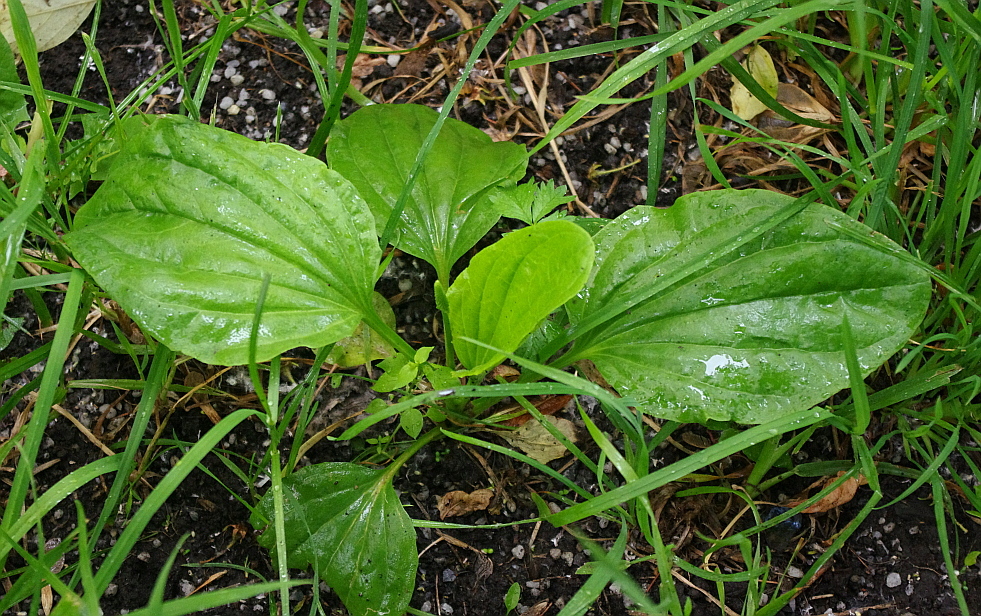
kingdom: Plantae
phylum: Tracheophyta
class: Magnoliopsida
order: Lamiales
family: Plantaginaceae
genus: Plantago
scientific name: Plantago major
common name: Common plantain
